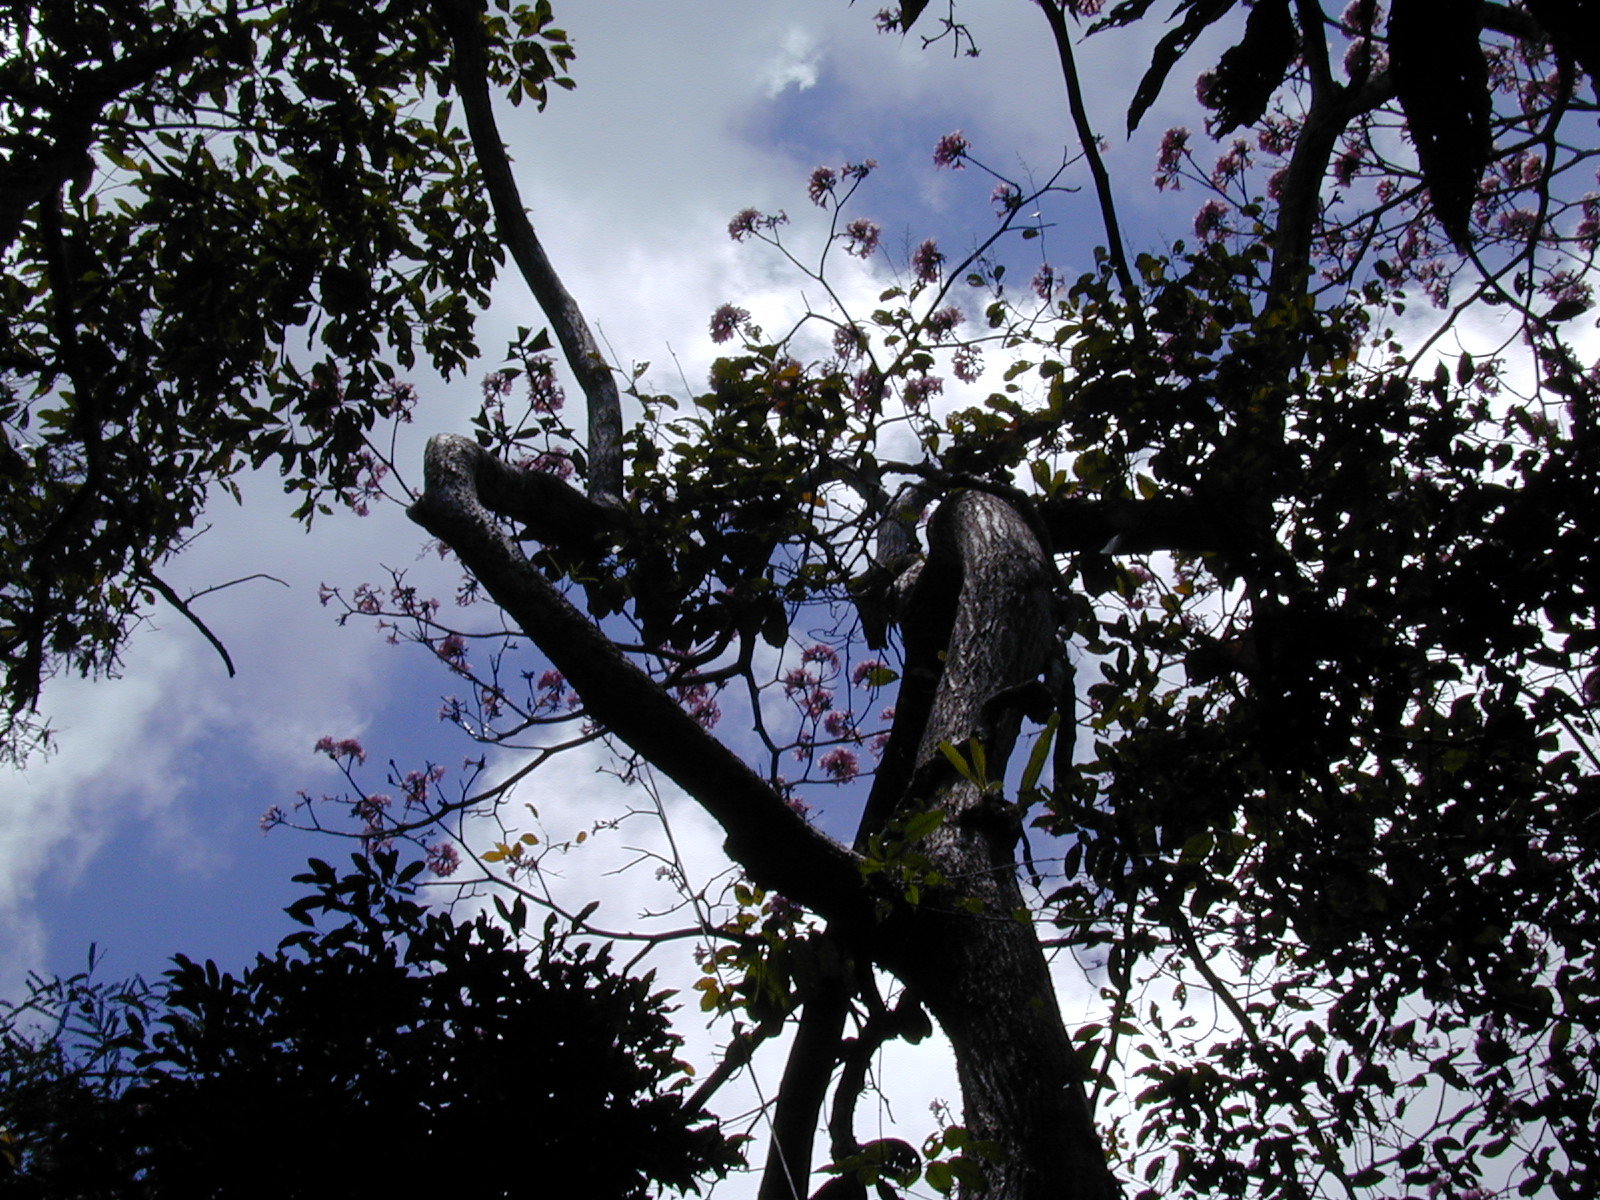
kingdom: Plantae
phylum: Tracheophyta
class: Magnoliopsida
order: Lamiales
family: Bignoniaceae
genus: Tabebuia
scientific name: Tabebuia rosea
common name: Pink poui
